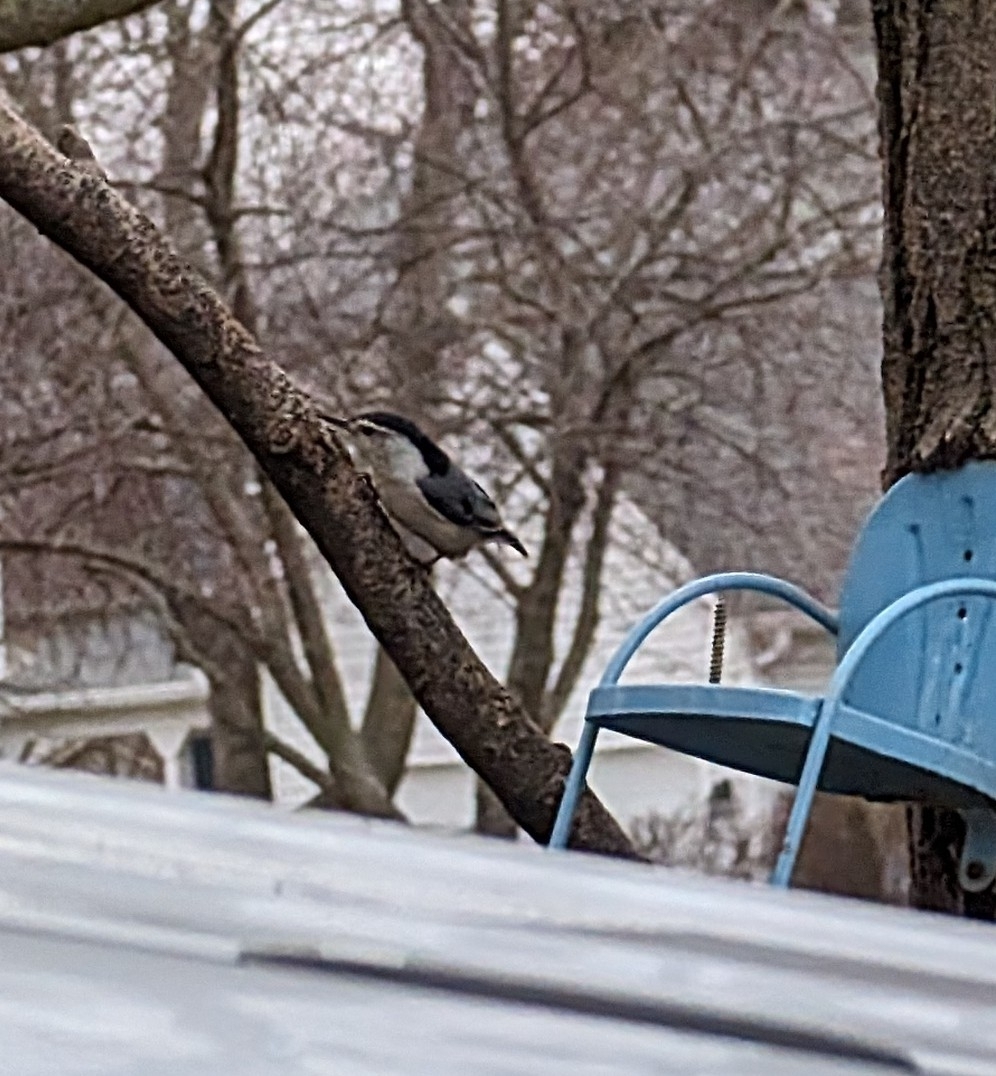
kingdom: Animalia
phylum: Chordata
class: Aves
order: Passeriformes
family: Sittidae
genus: Sitta
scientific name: Sitta carolinensis
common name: White-breasted nuthatch
